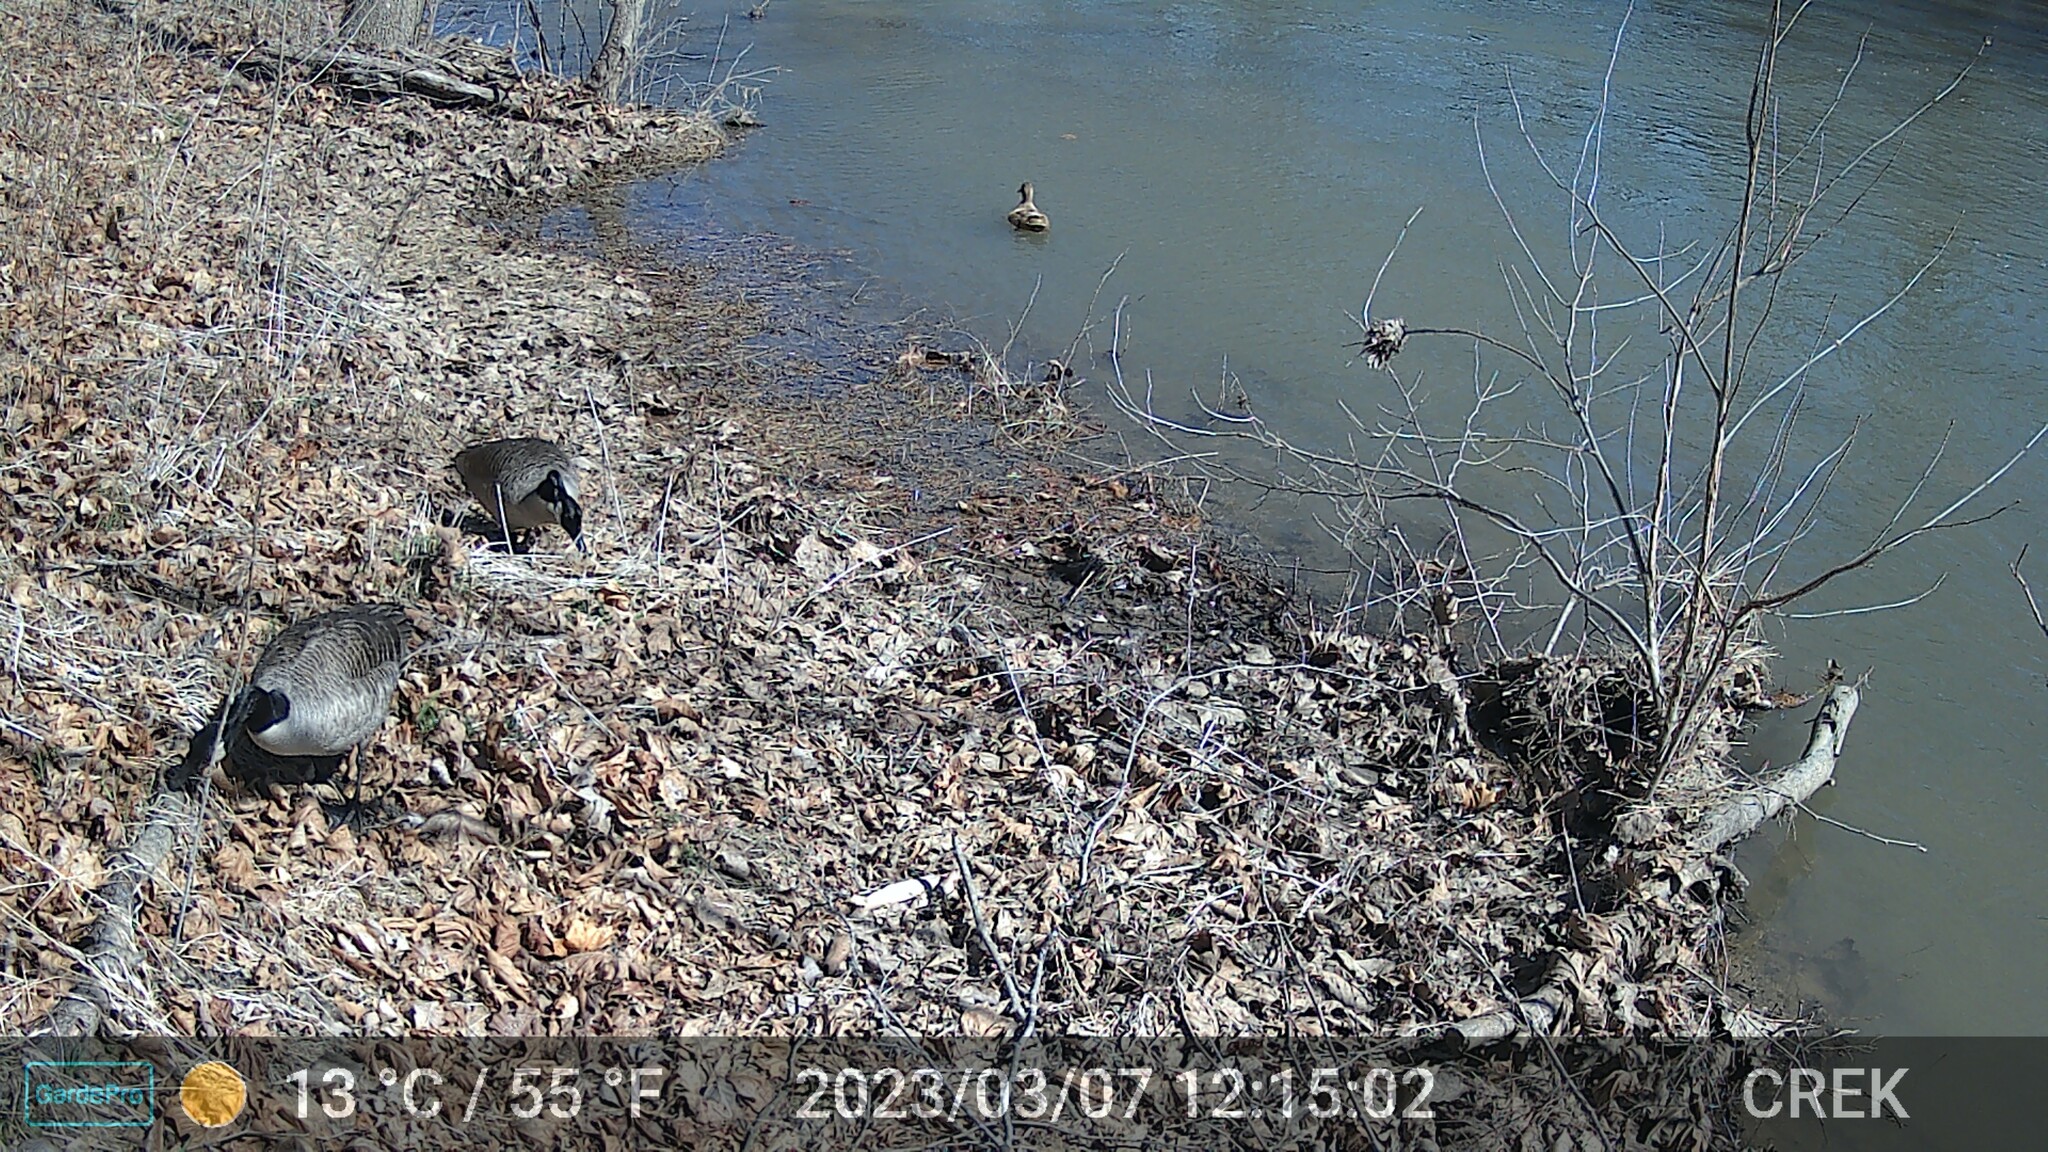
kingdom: Animalia
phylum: Chordata
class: Aves
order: Anseriformes
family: Anatidae
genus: Branta
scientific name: Branta canadensis
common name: Canada goose
